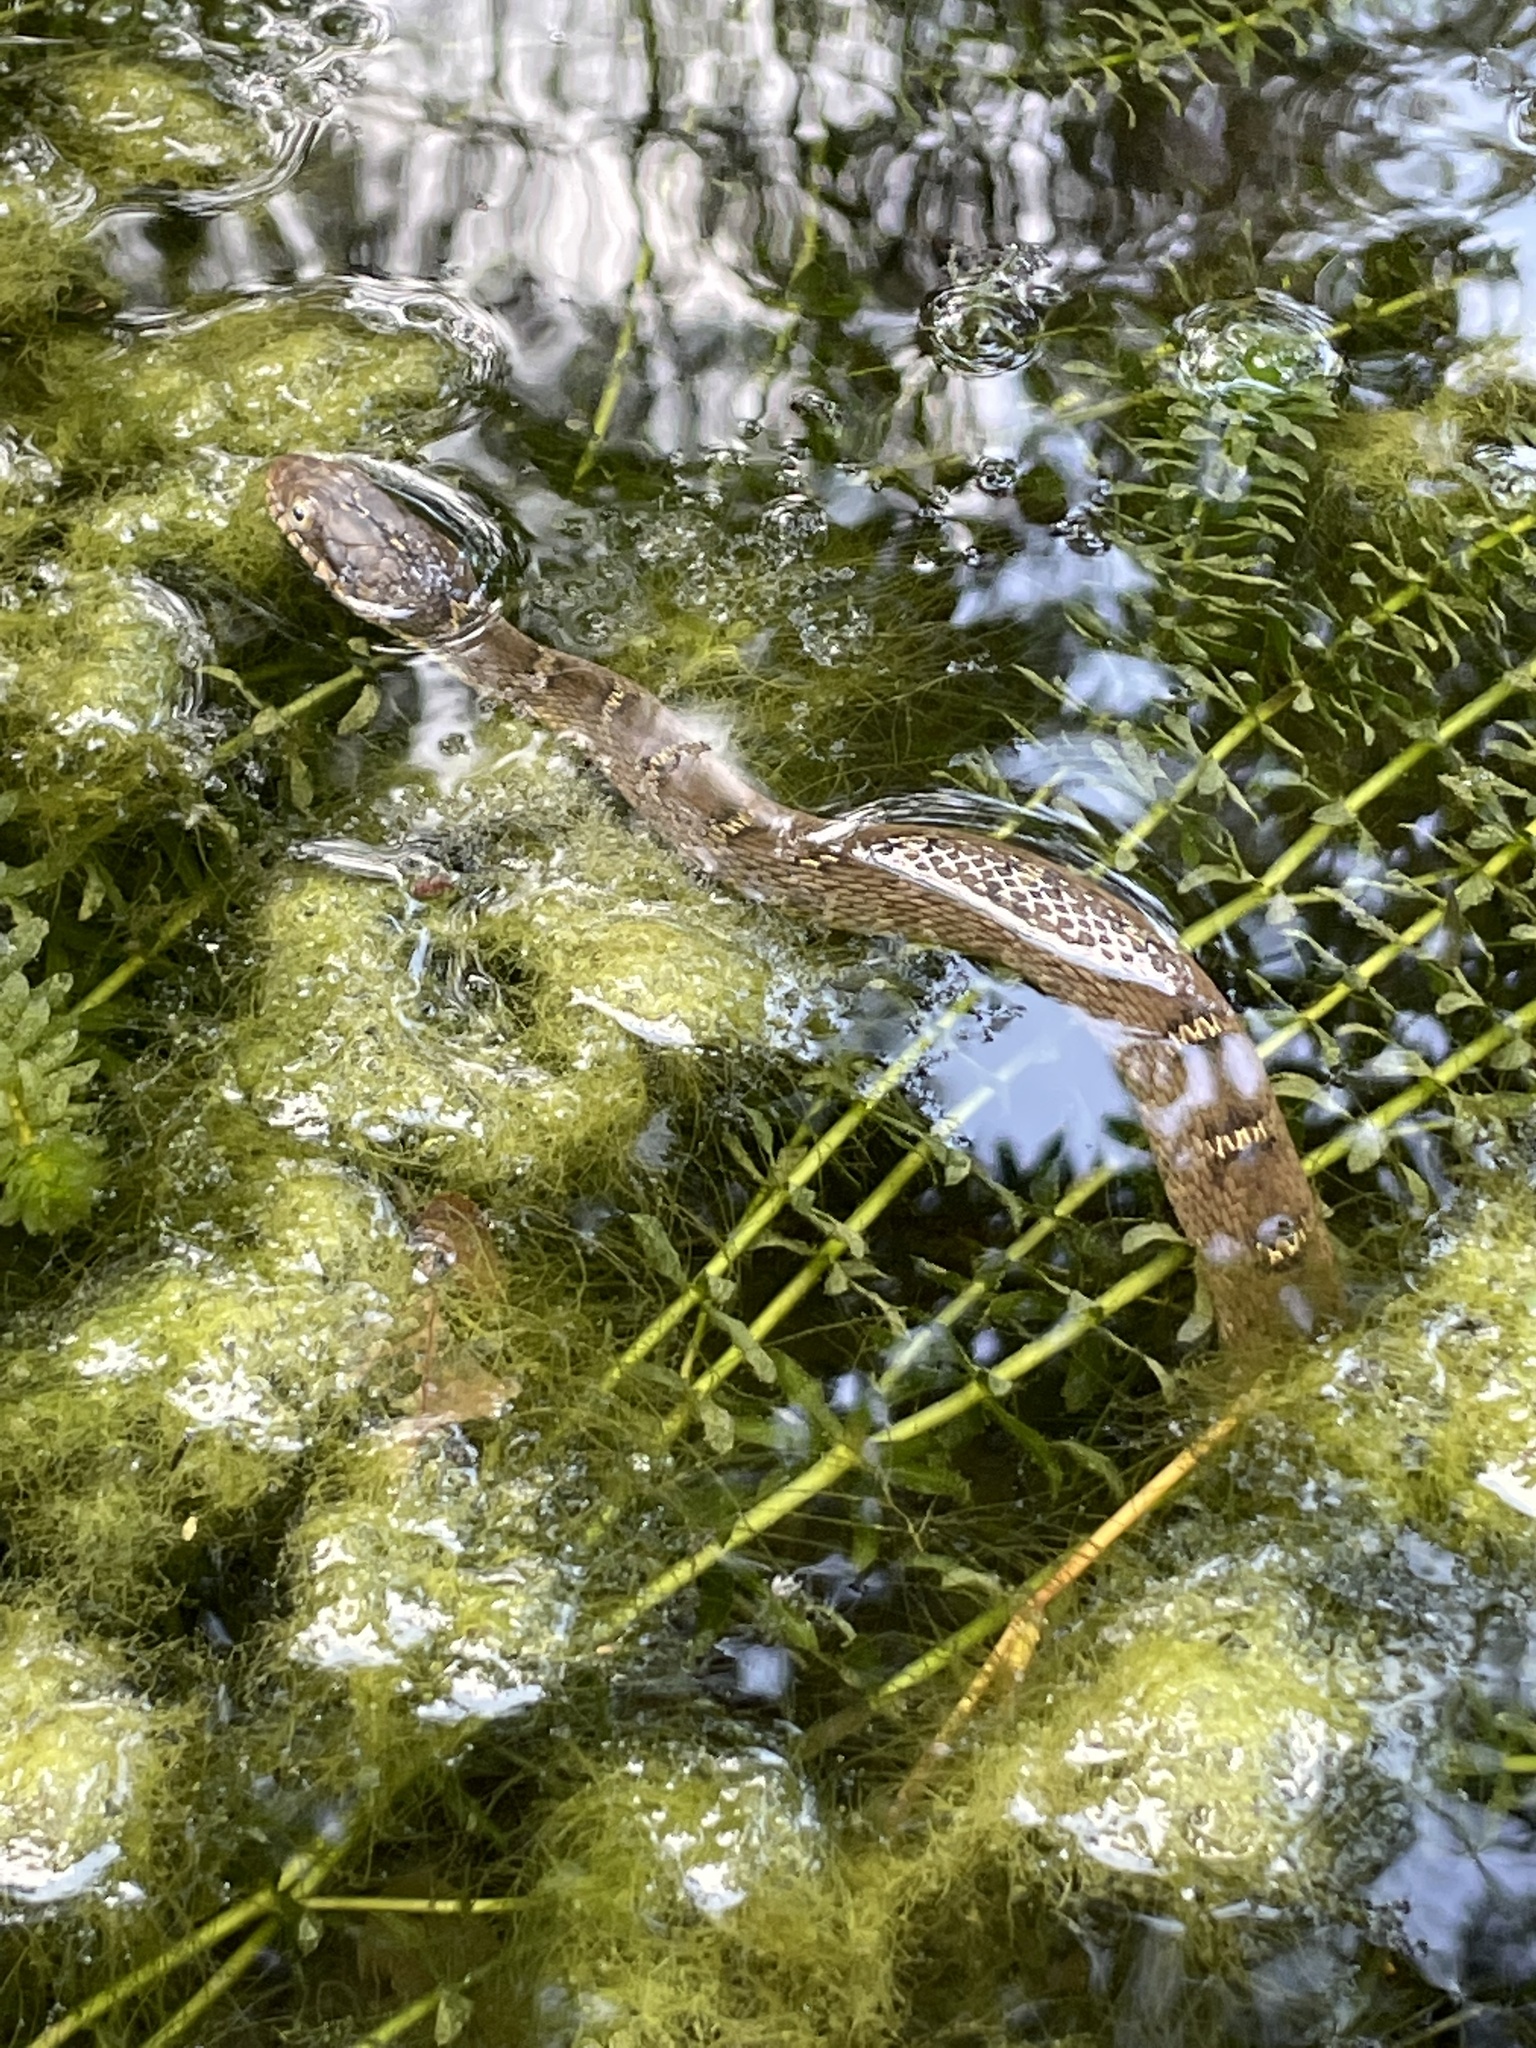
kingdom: Animalia
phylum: Chordata
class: Squamata
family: Colubridae
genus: Nerodia
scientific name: Nerodia erythrogaster
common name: Plainbelly water snake
